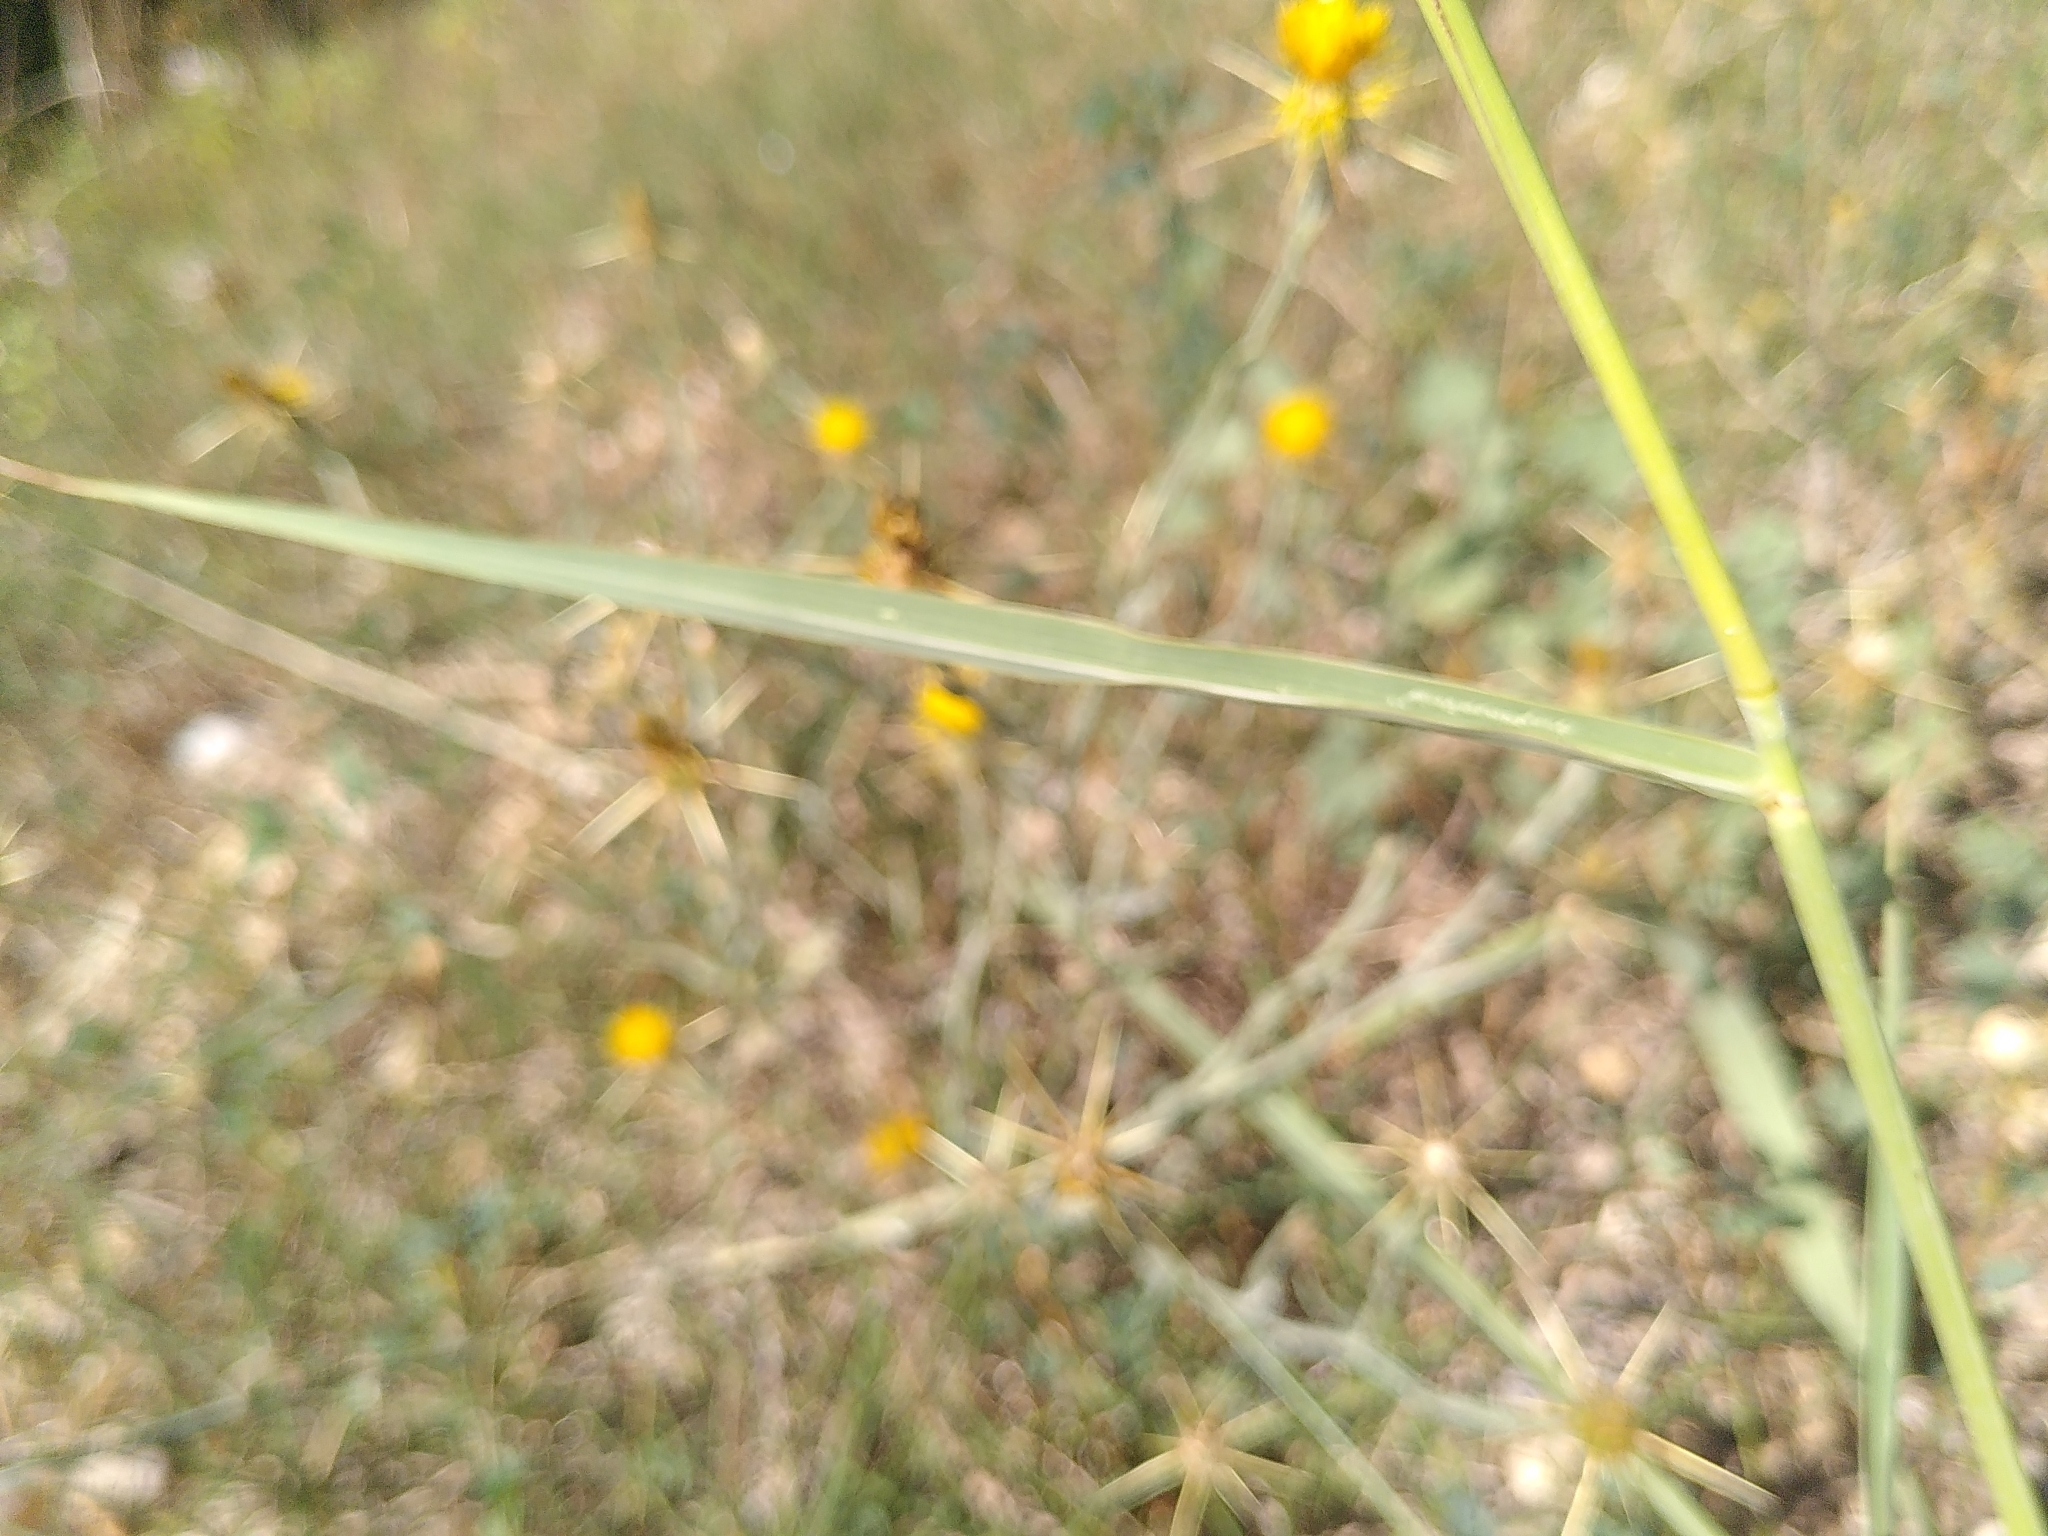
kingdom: Plantae
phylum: Tracheophyta
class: Liliopsida
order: Poales
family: Poaceae
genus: Sorghum
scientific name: Sorghum halepense
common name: Johnson-grass
